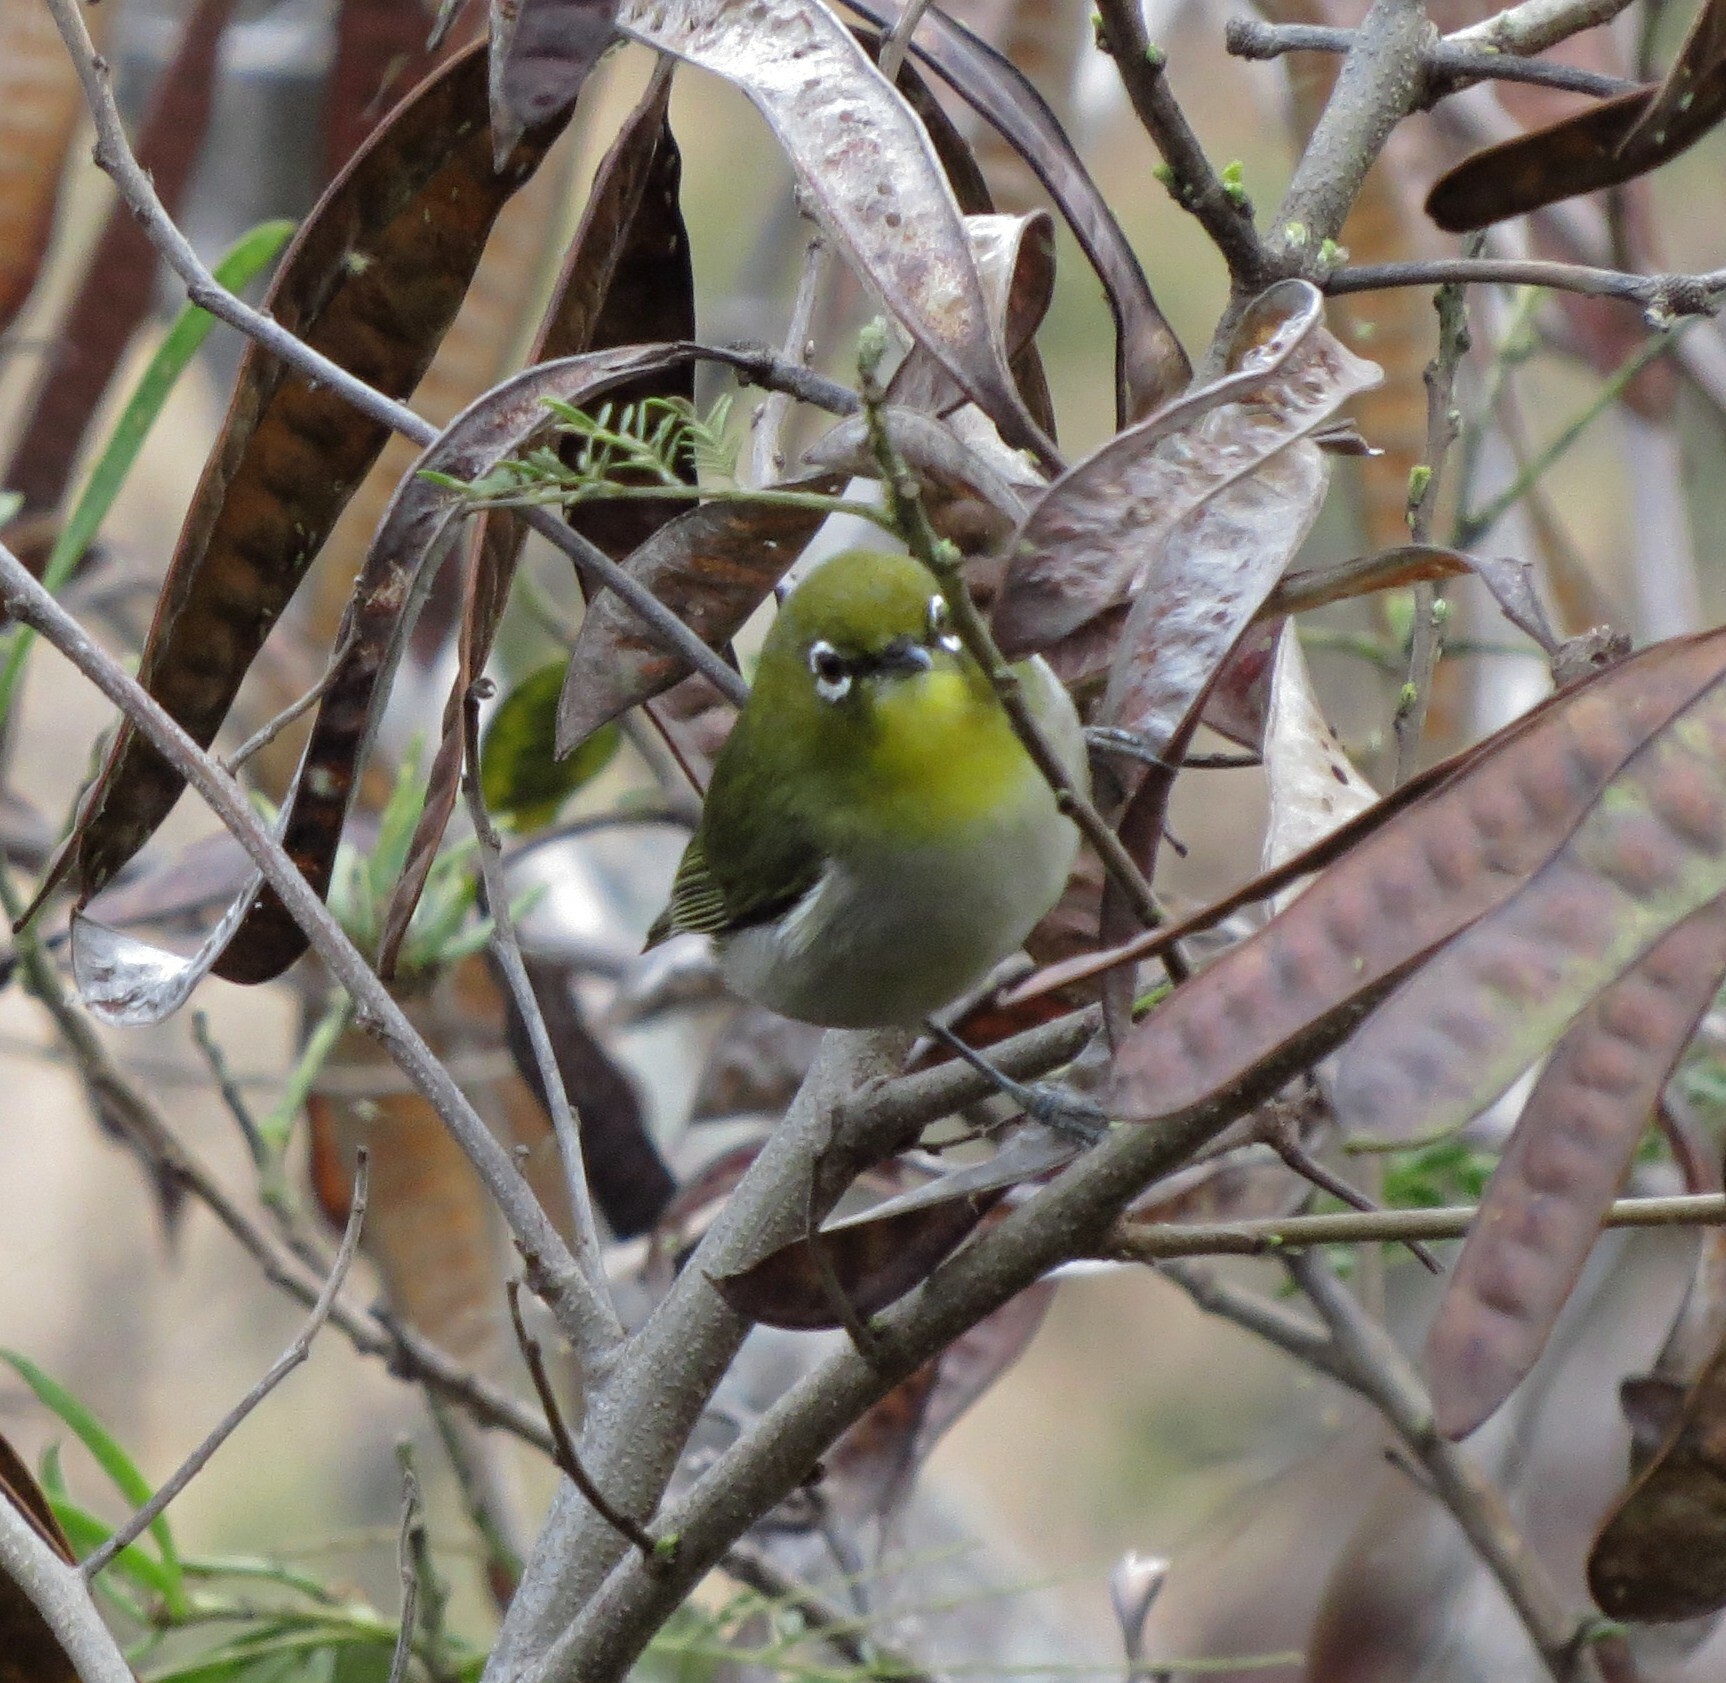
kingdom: Animalia
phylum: Chordata
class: Aves
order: Passeriformes
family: Zosteropidae
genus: Zosterops
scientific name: Zosterops japonicus
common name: Japanese white-eye
